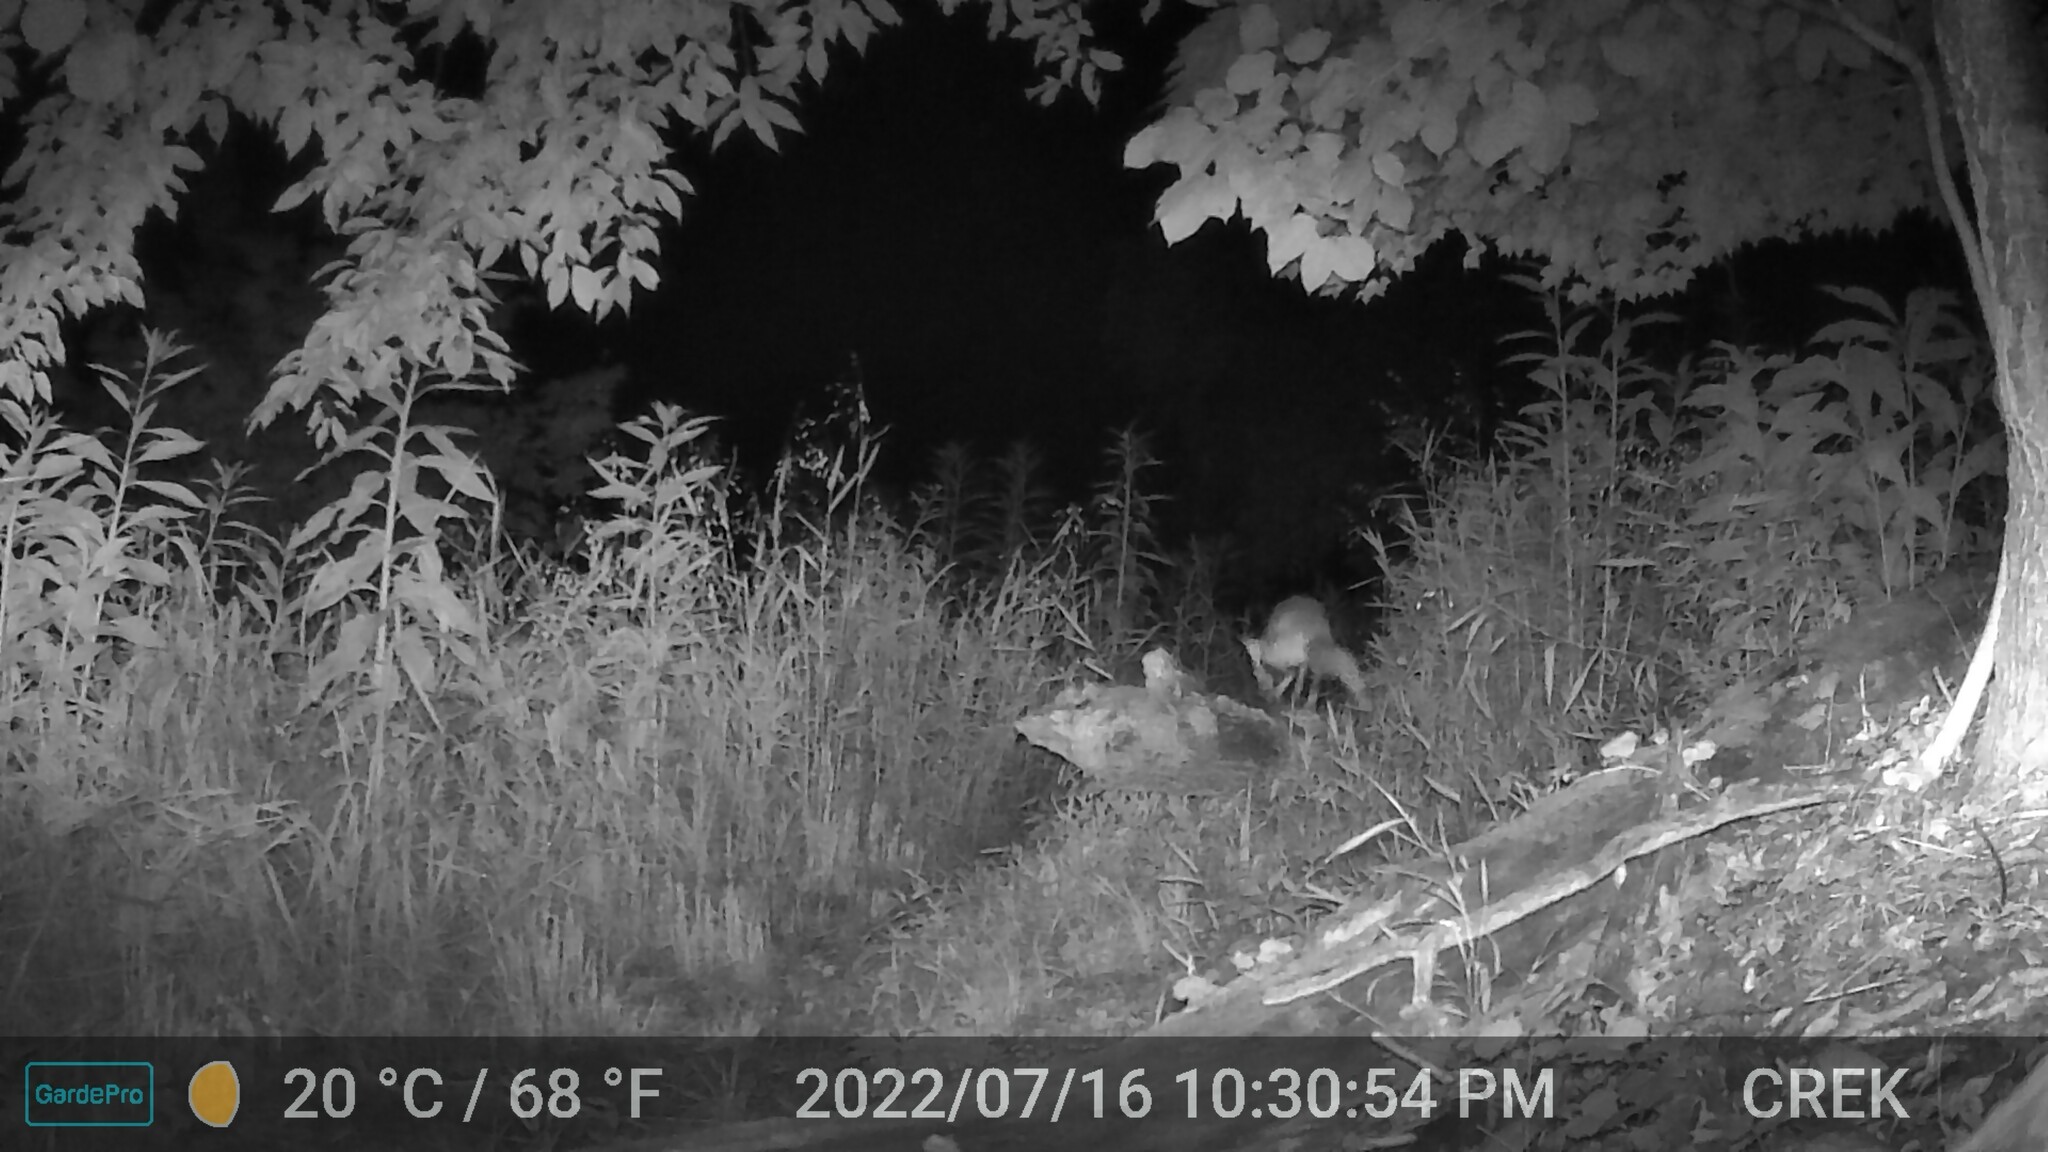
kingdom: Animalia
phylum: Chordata
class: Mammalia
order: Carnivora
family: Canidae
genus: Vulpes
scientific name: Vulpes vulpes
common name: Red fox
